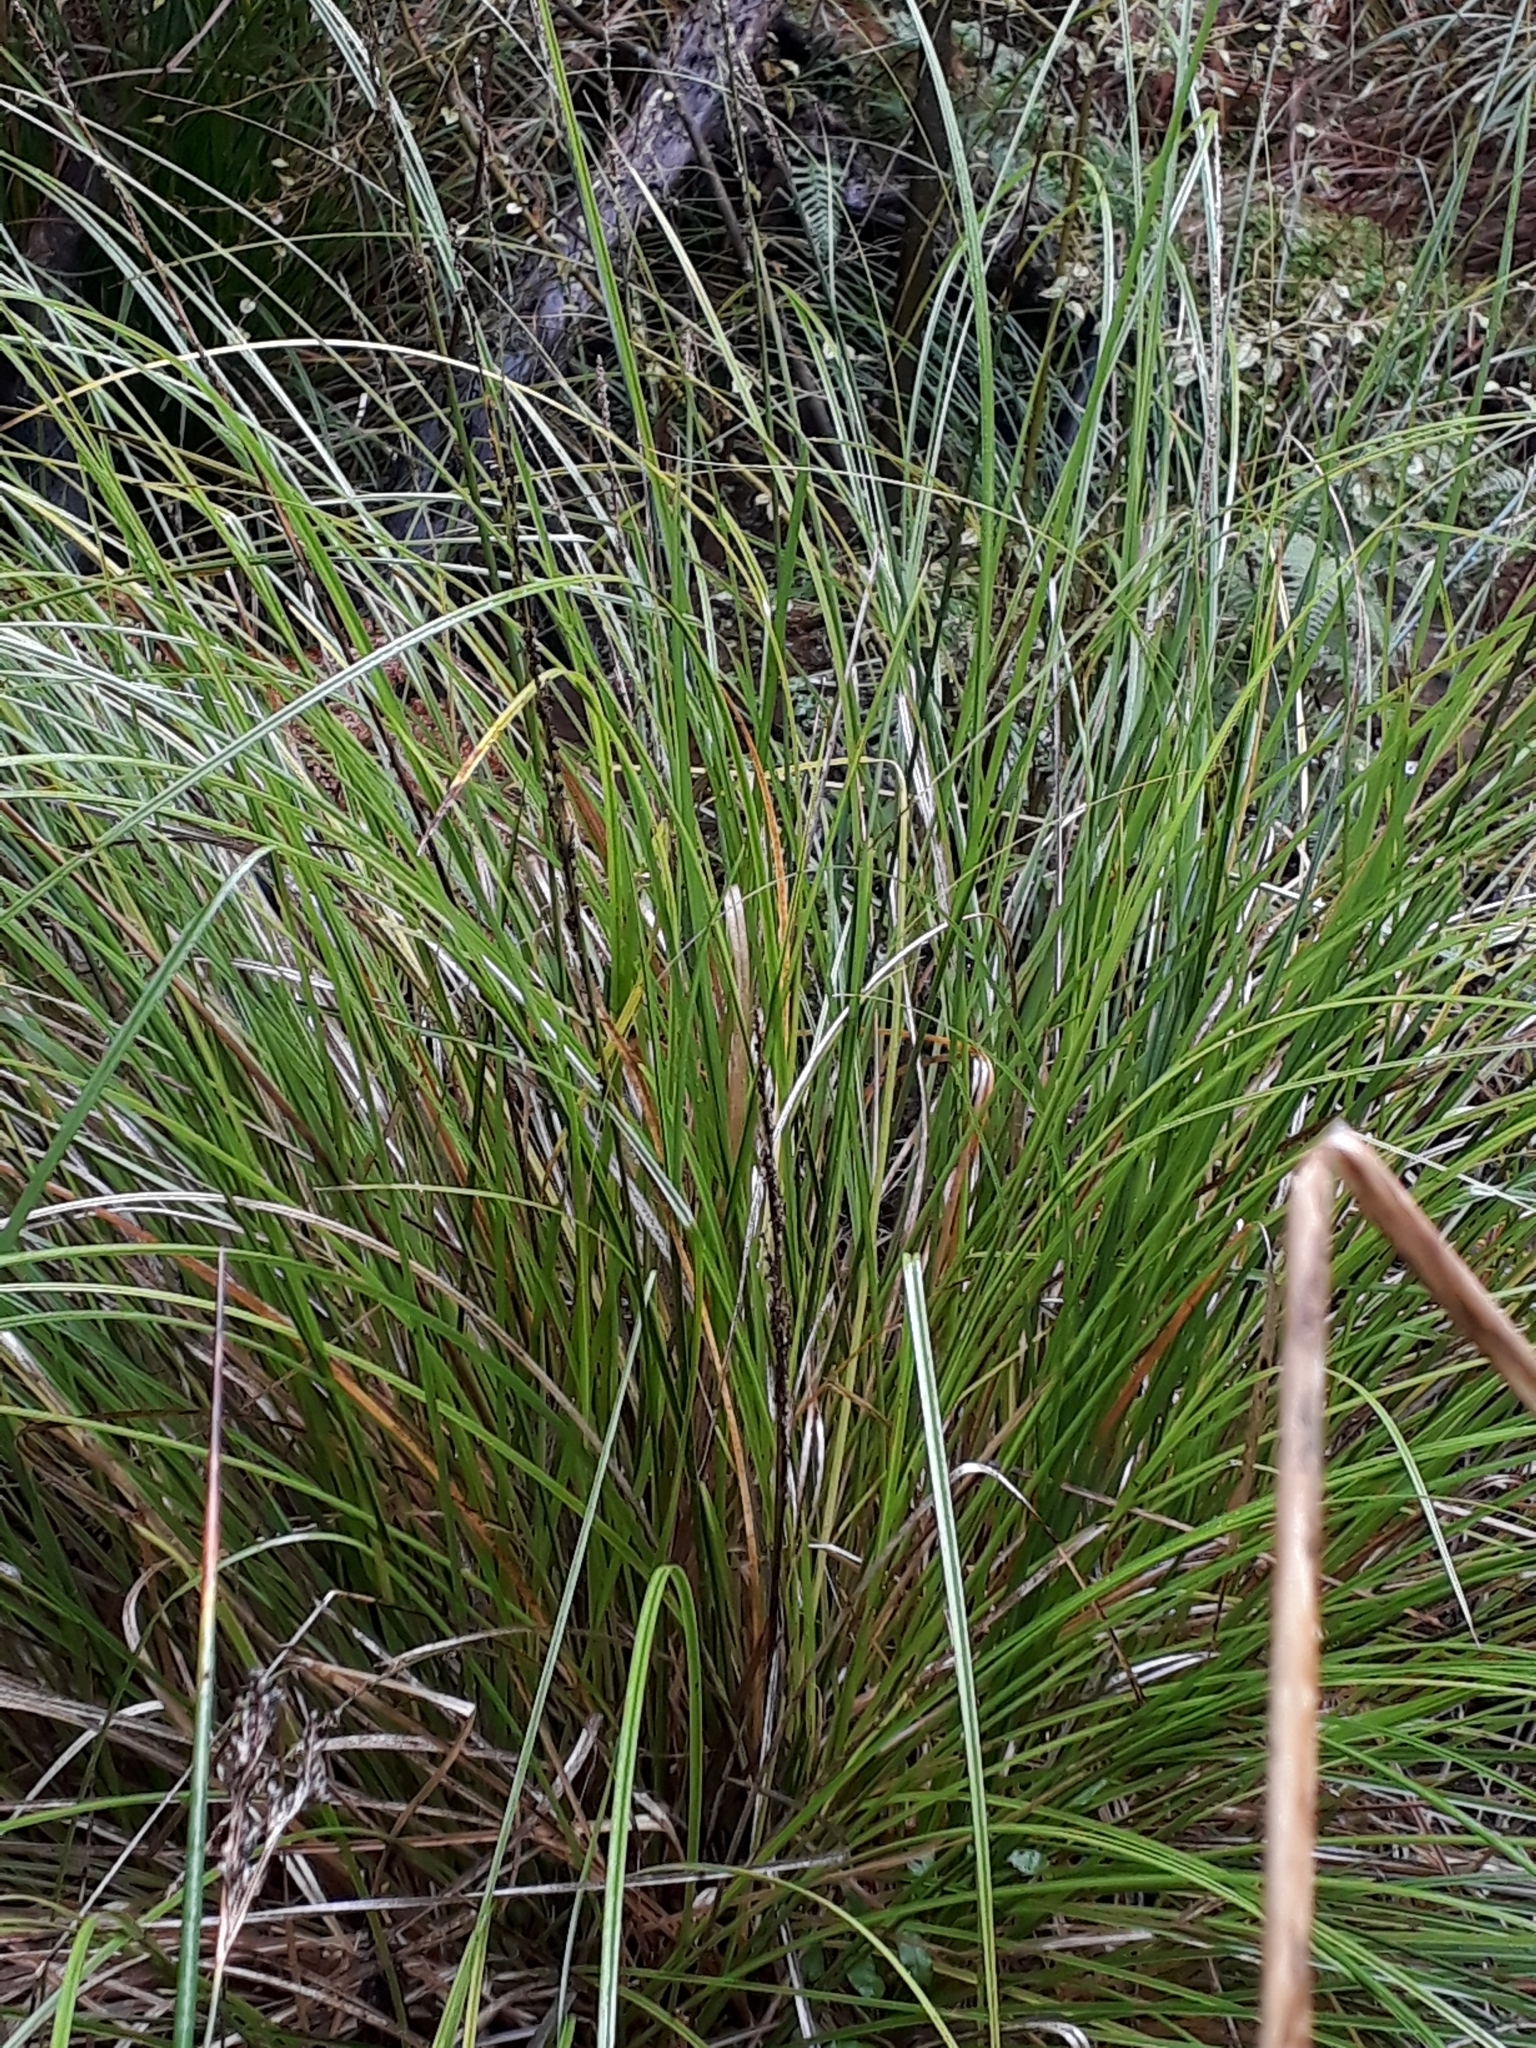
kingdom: Plantae
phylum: Tracheophyta
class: Liliopsida
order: Poales
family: Cyperaceae
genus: Carex
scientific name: Carex virgata
